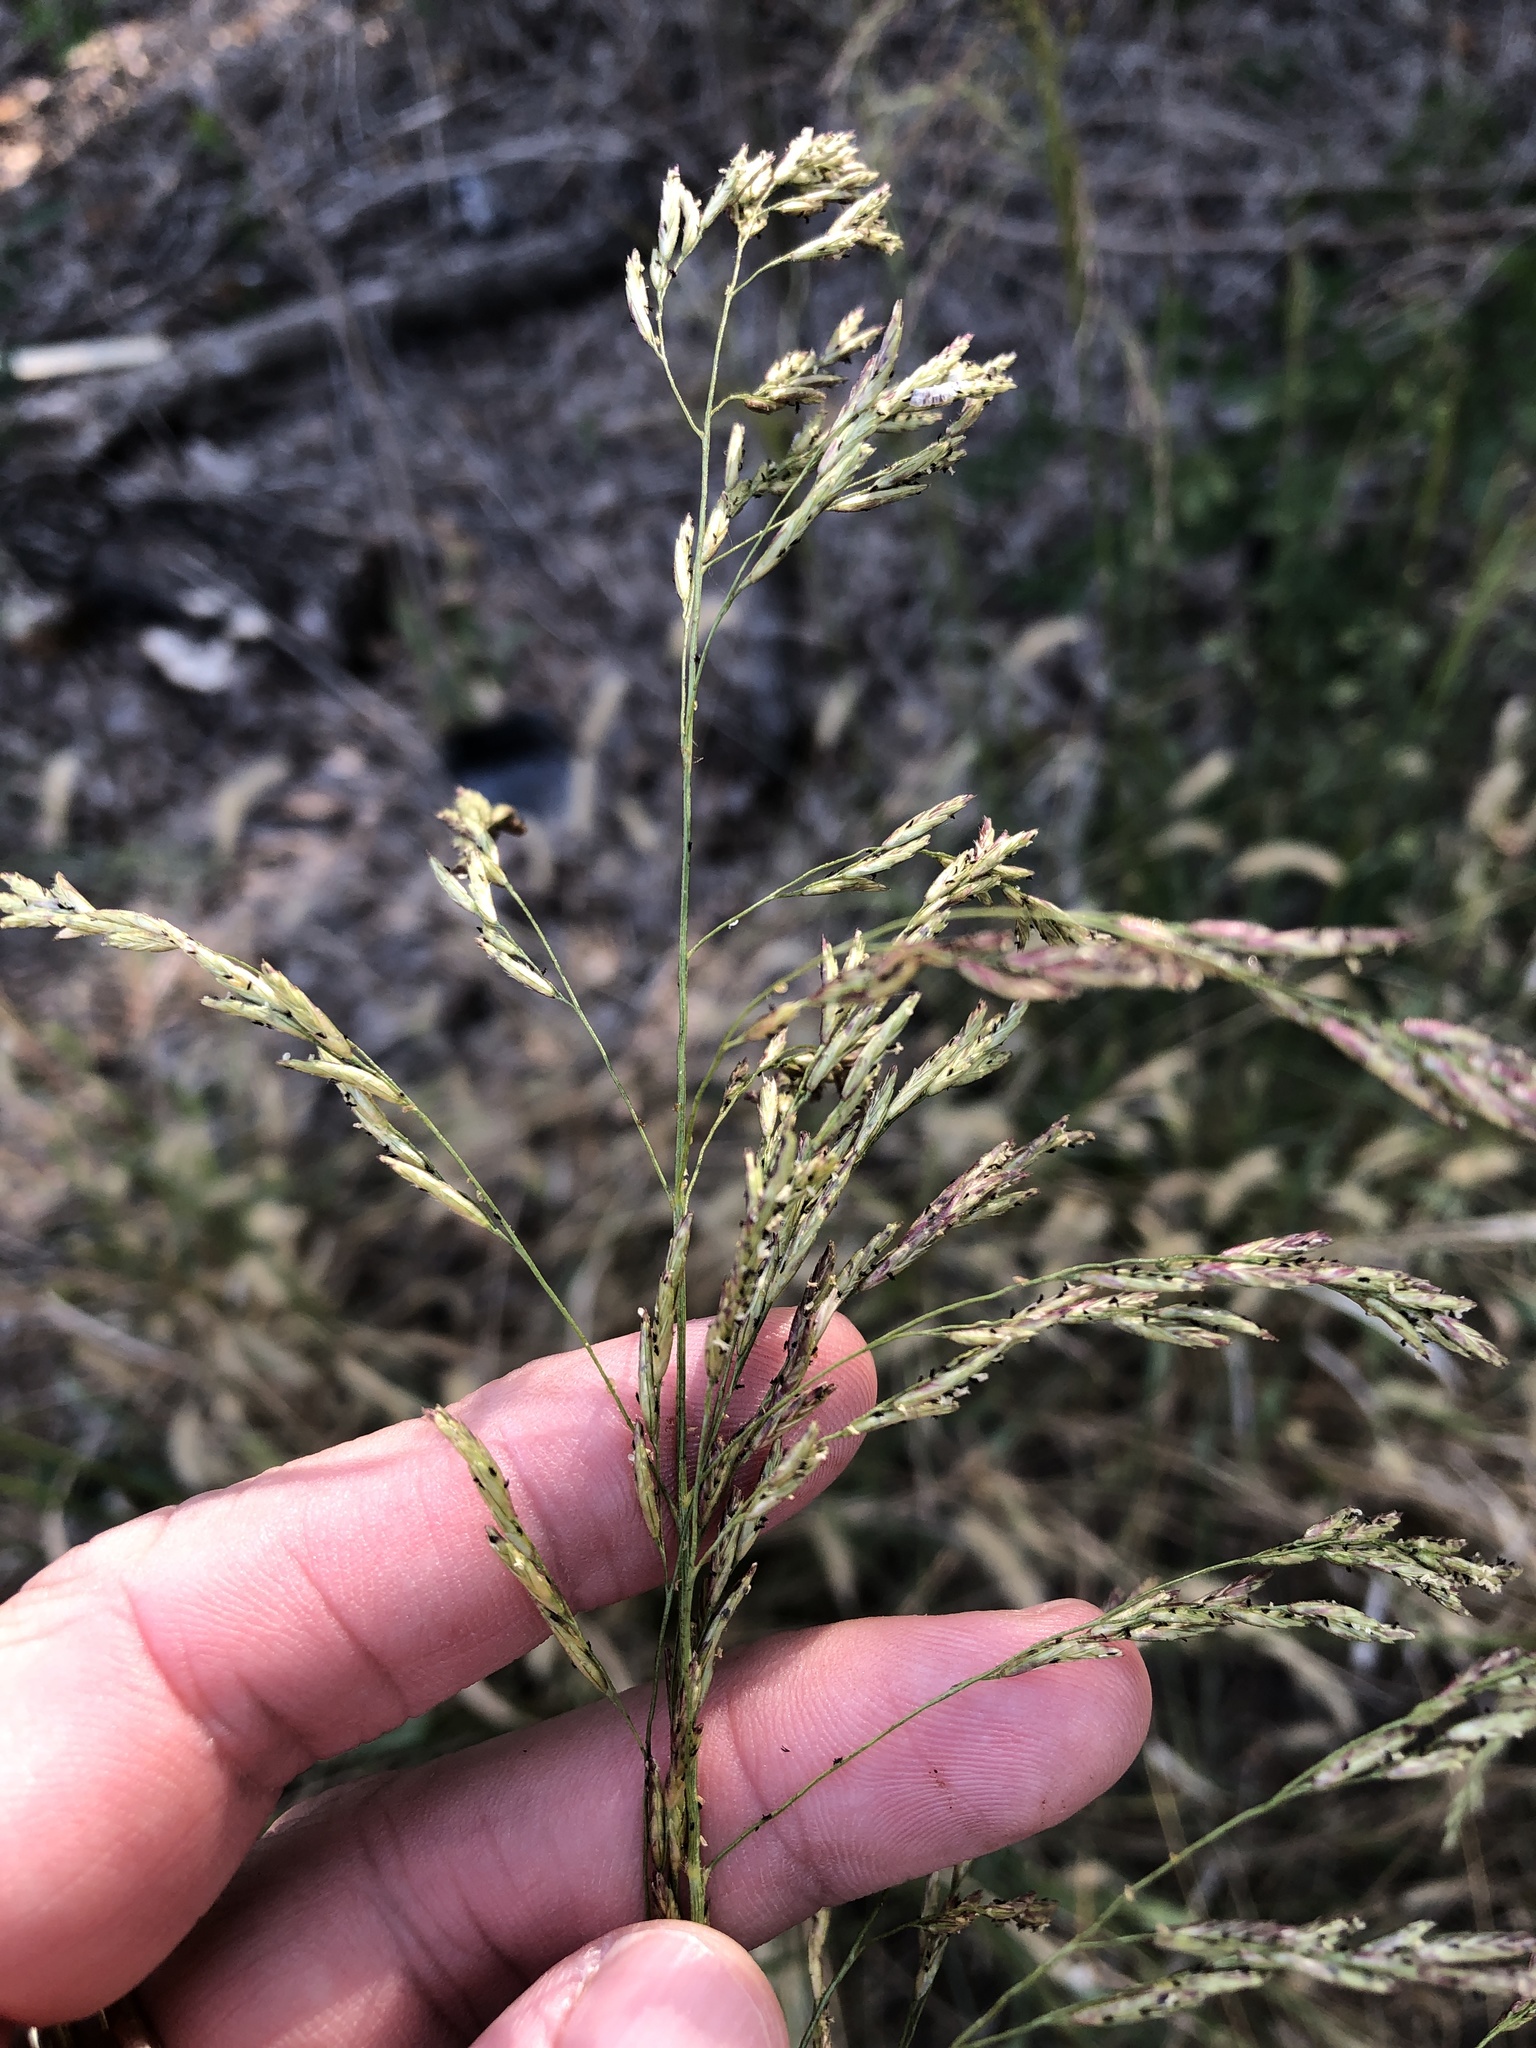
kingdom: Plantae
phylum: Tracheophyta
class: Liliopsida
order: Poales
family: Poaceae
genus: Tridens
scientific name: Tridens flavus
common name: Purpletop
